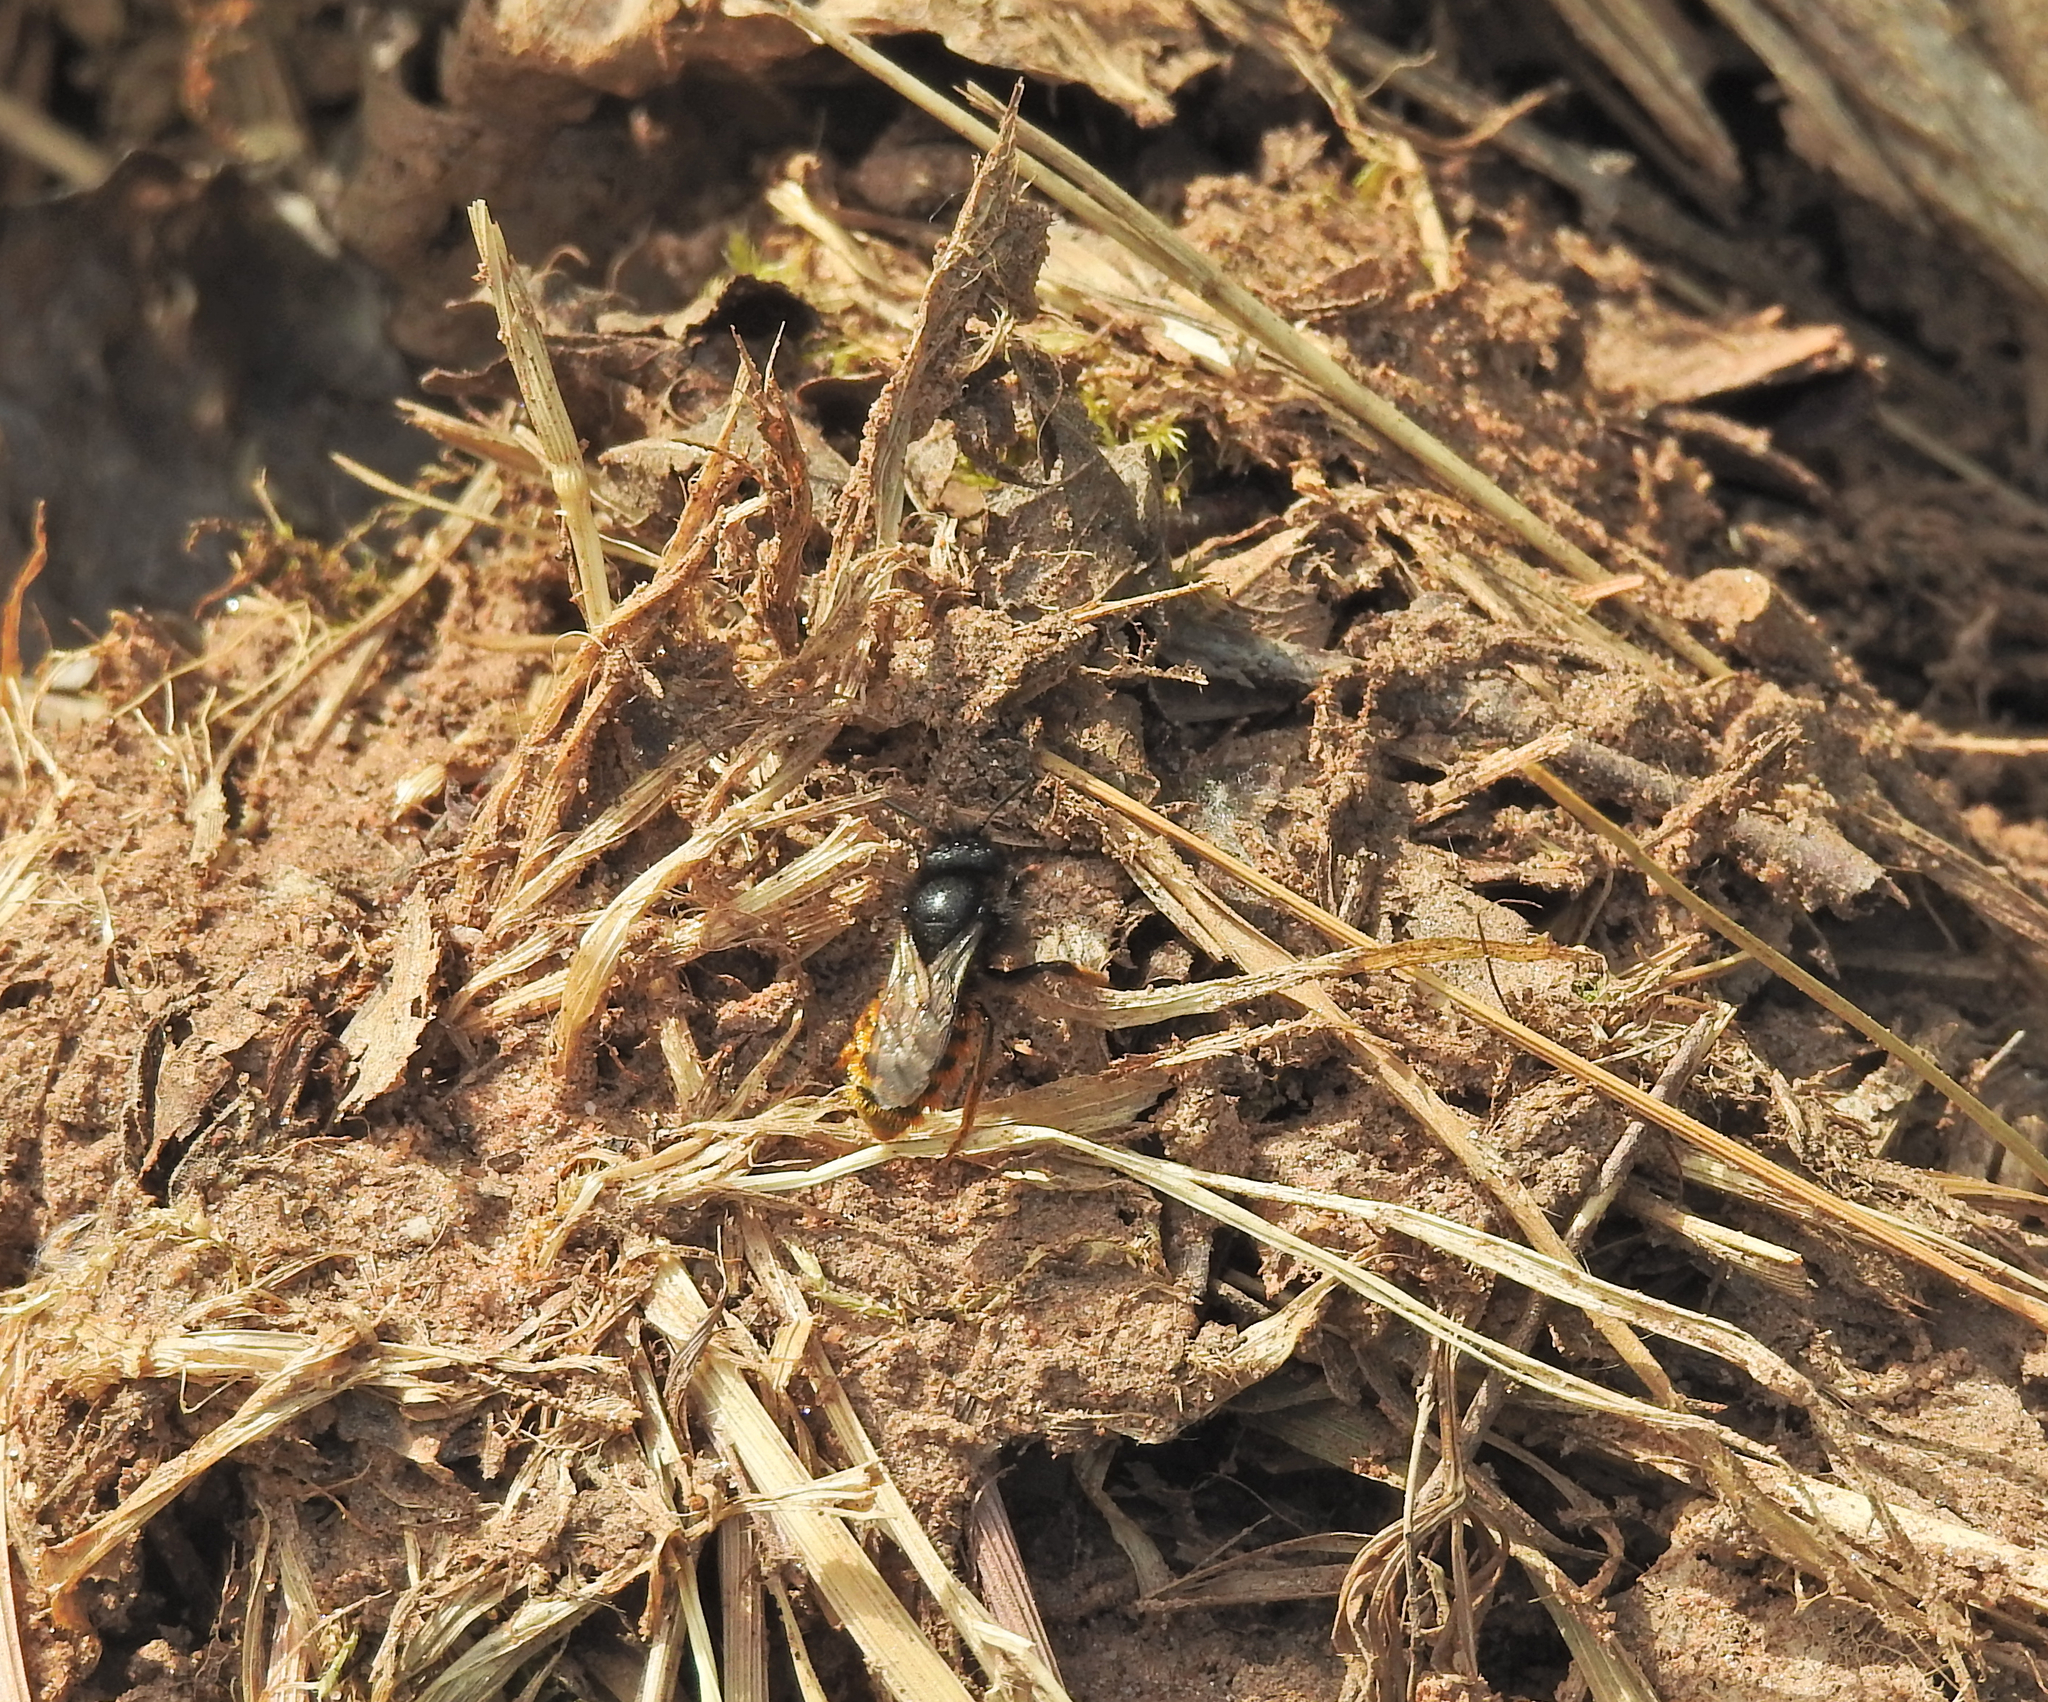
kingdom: Animalia
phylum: Arthropoda
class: Insecta
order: Hymenoptera
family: Megachilidae
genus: Osmia
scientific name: Osmia bicolor
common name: Red-tailed mason bee
